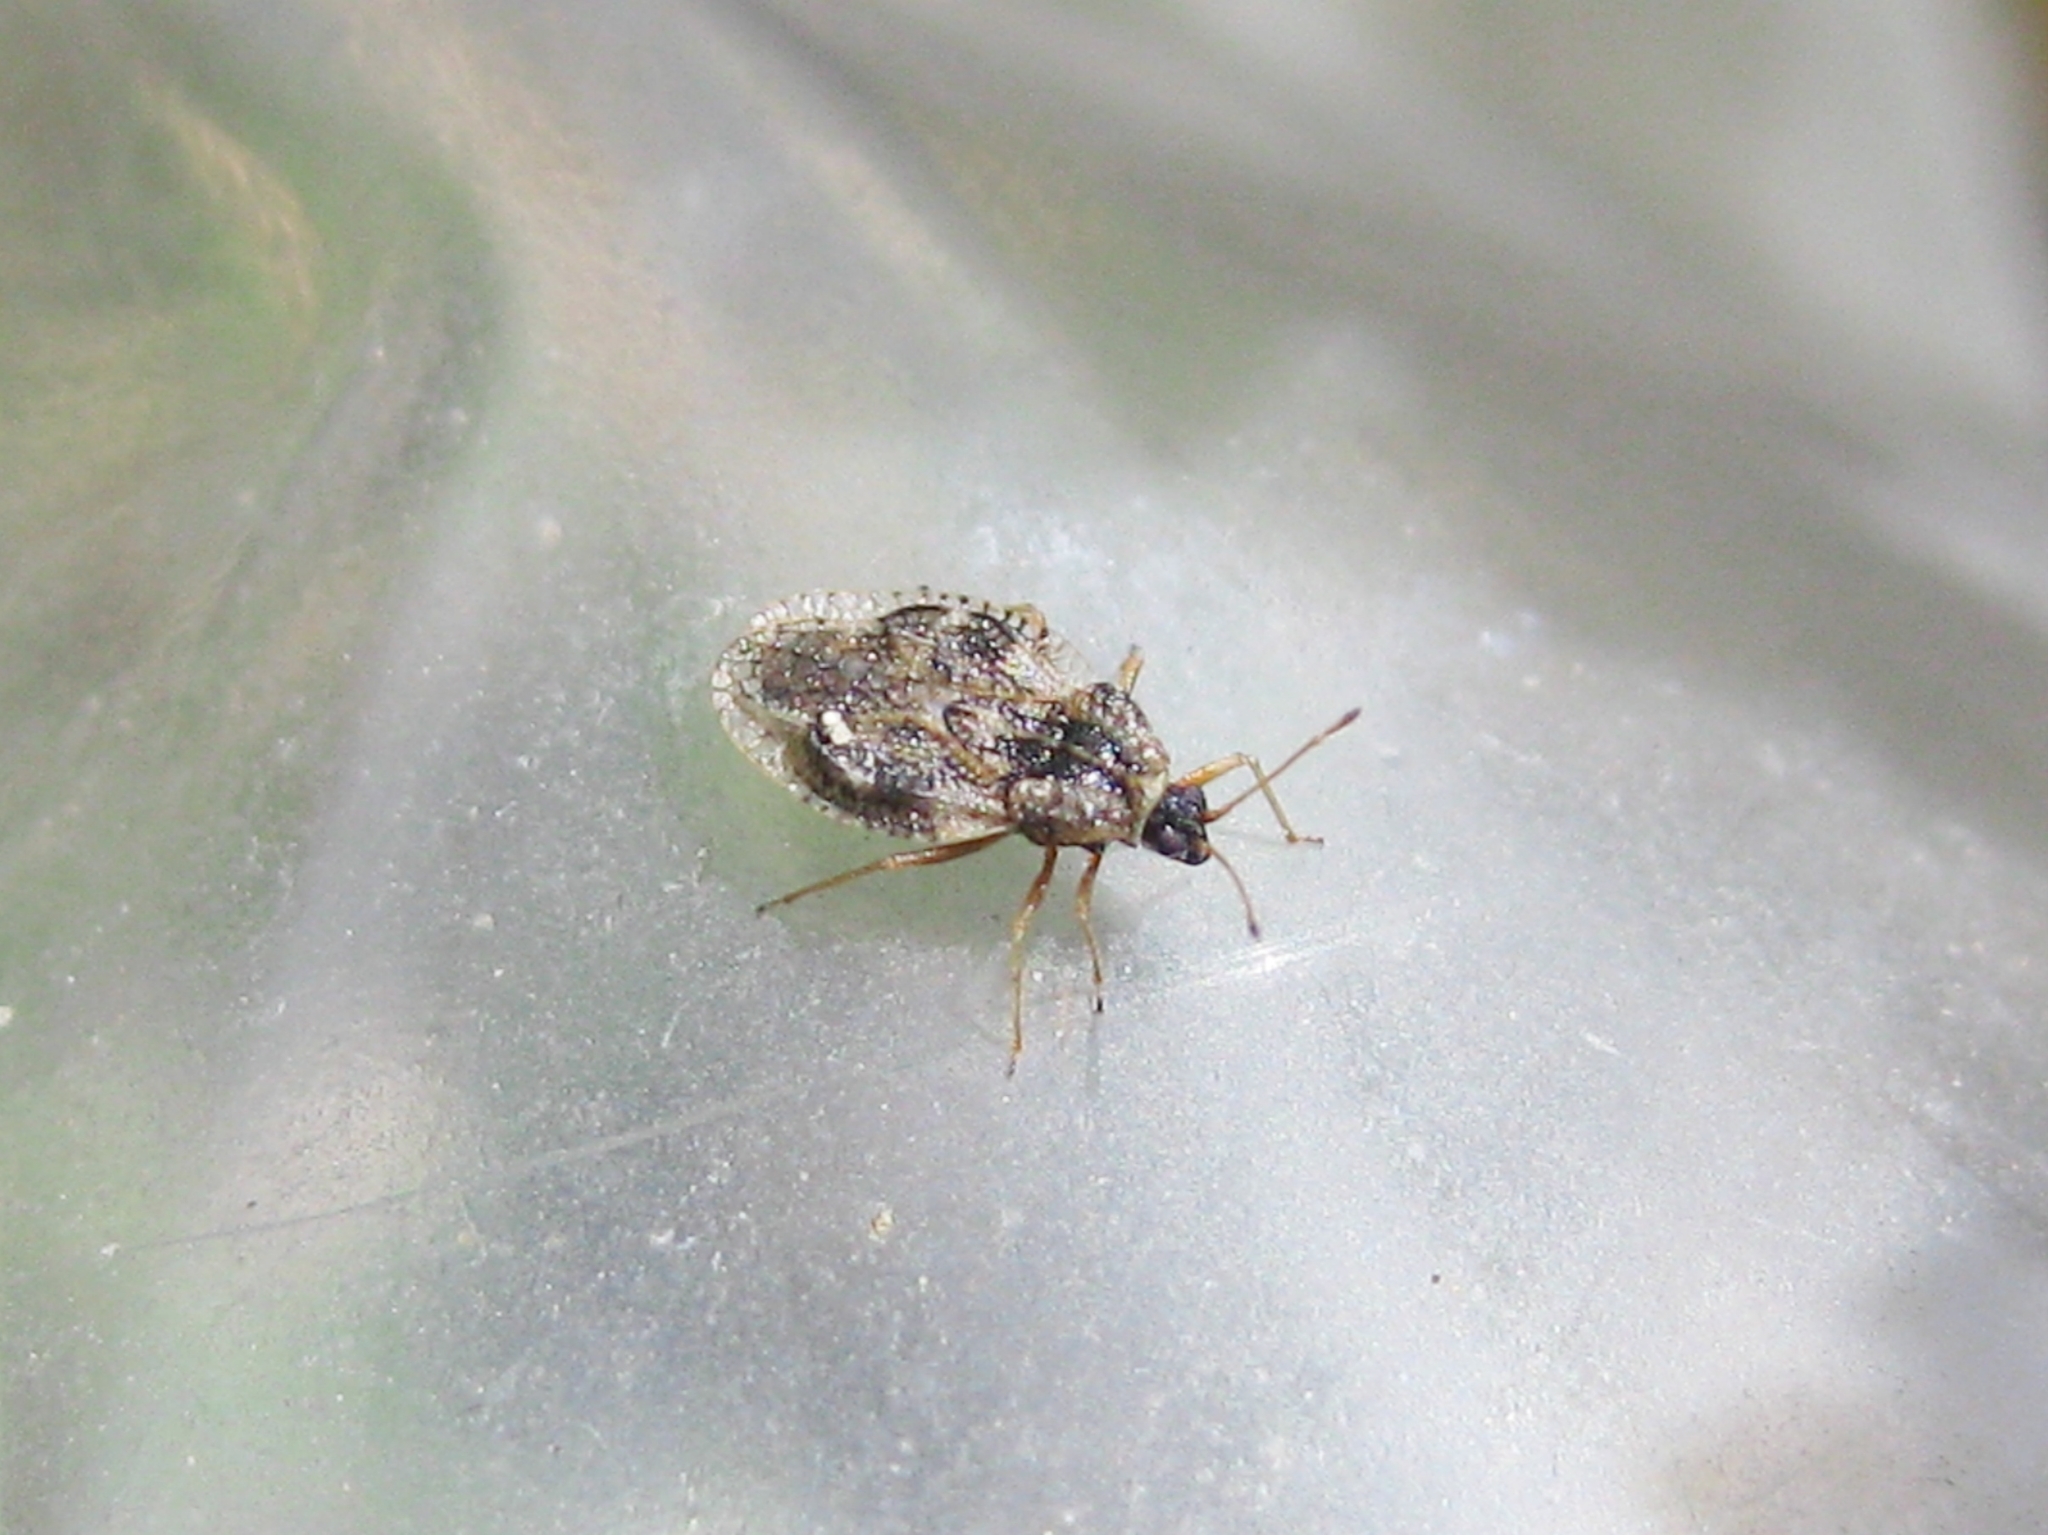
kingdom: Animalia
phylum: Arthropoda
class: Insecta
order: Hemiptera
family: Tingidae
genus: Dictyla
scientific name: Dictyla nassata
